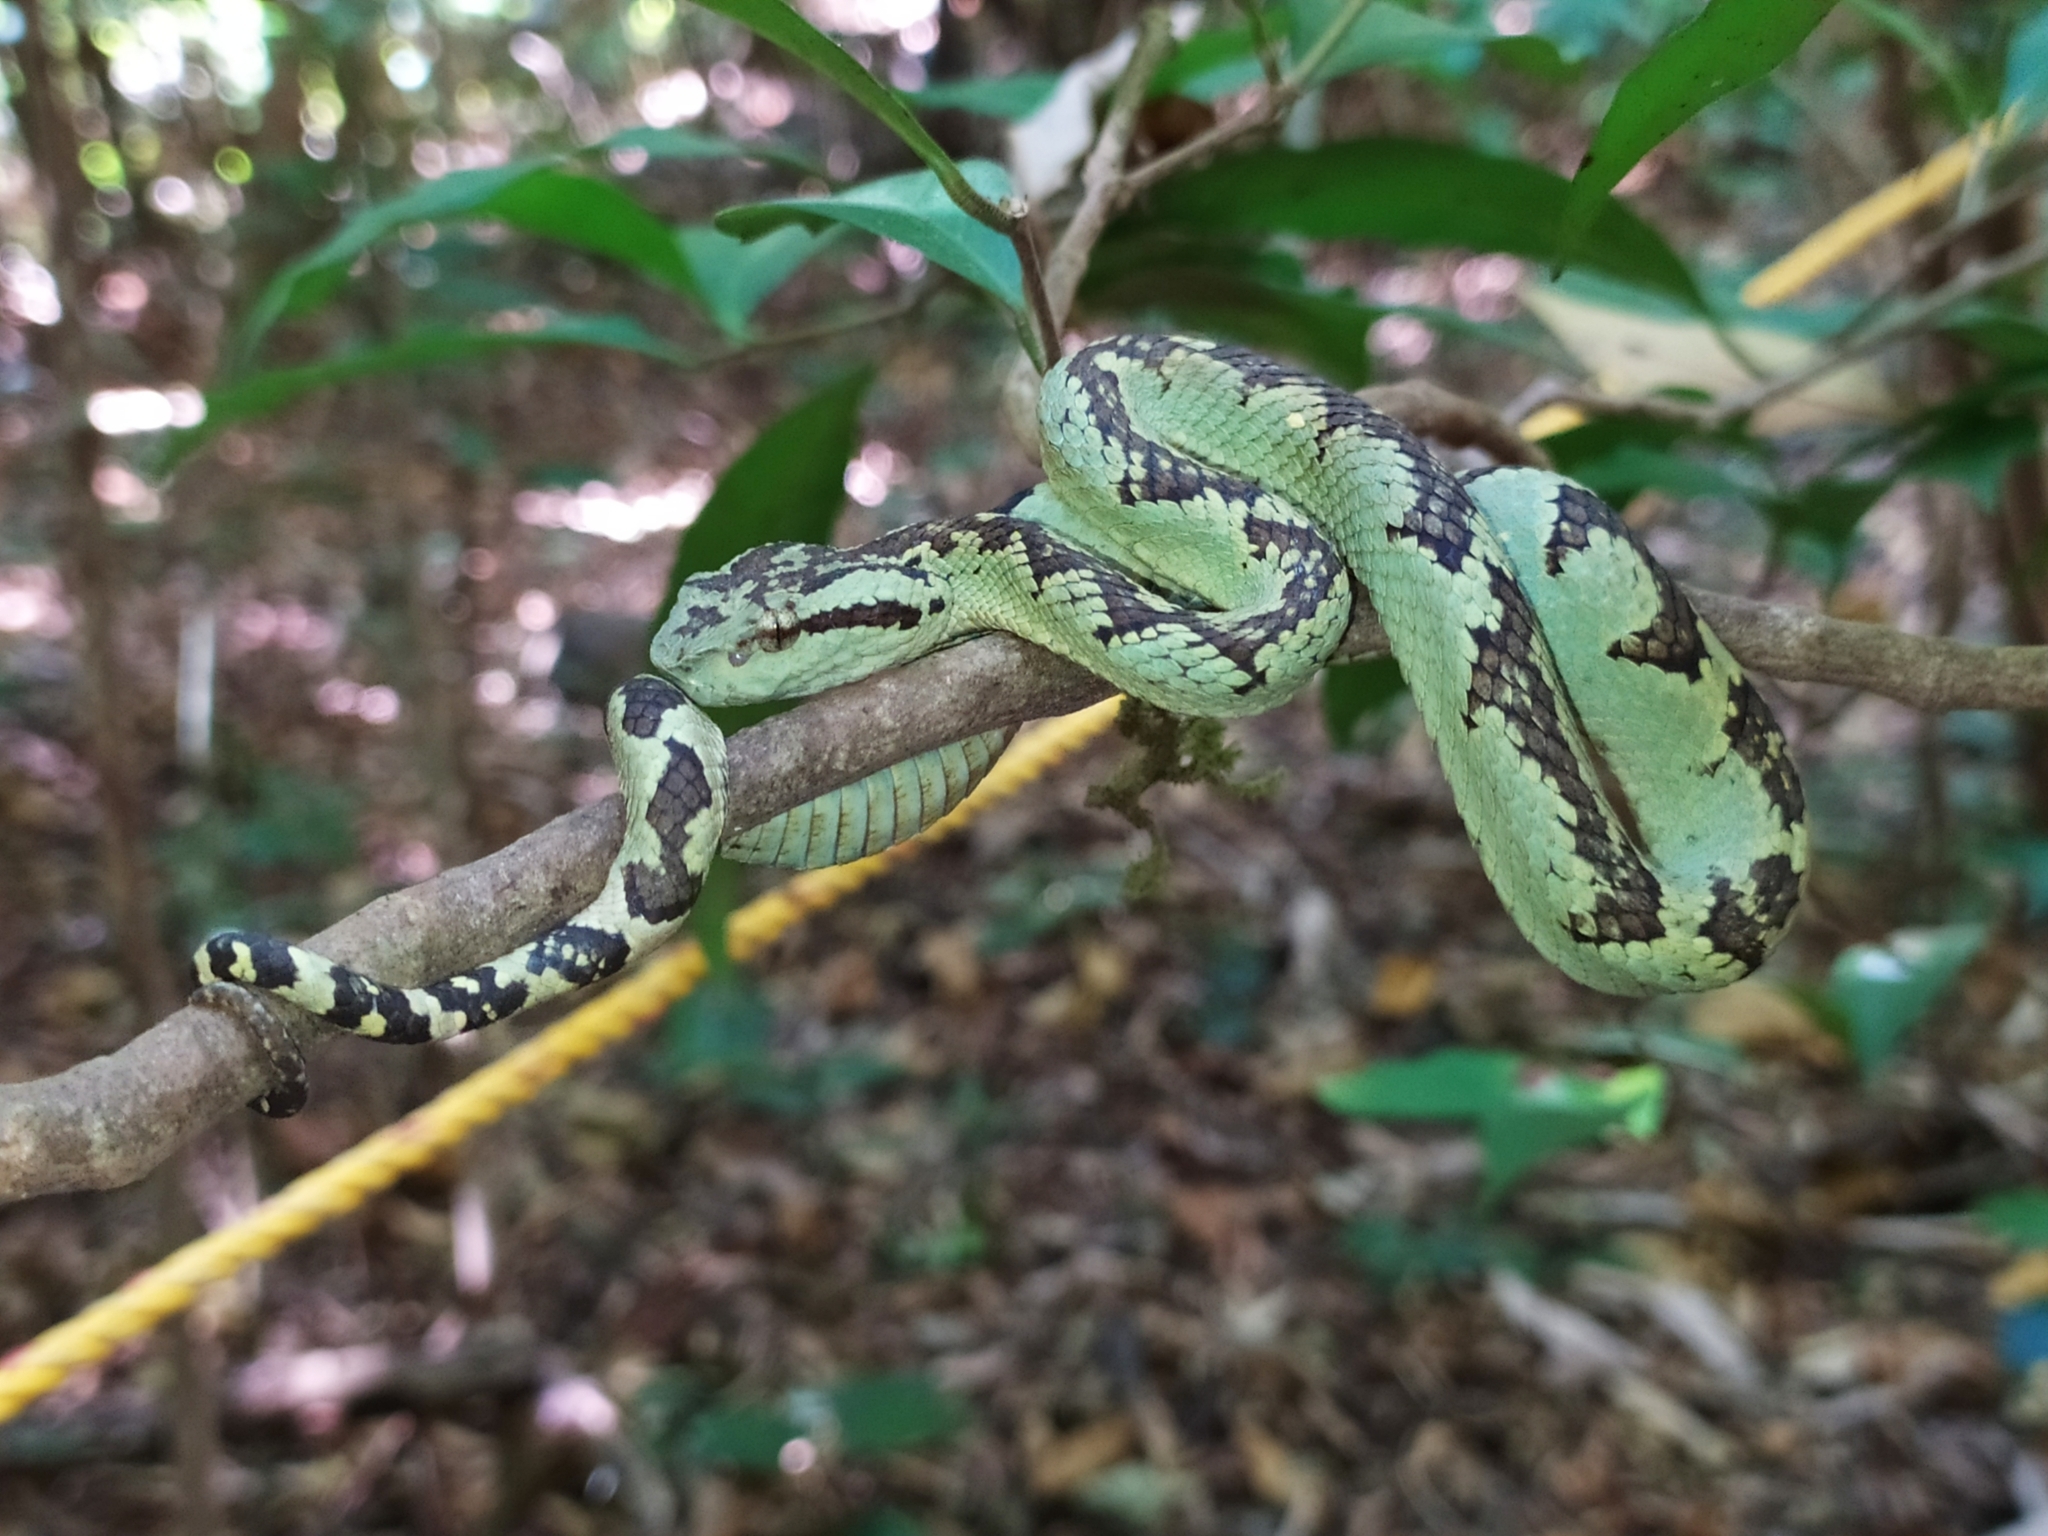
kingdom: Animalia
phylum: Chordata
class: Squamata
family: Viperidae
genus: Craspedocephalus
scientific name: Craspedocephalus malabaricus
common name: Malabarian pit viper
